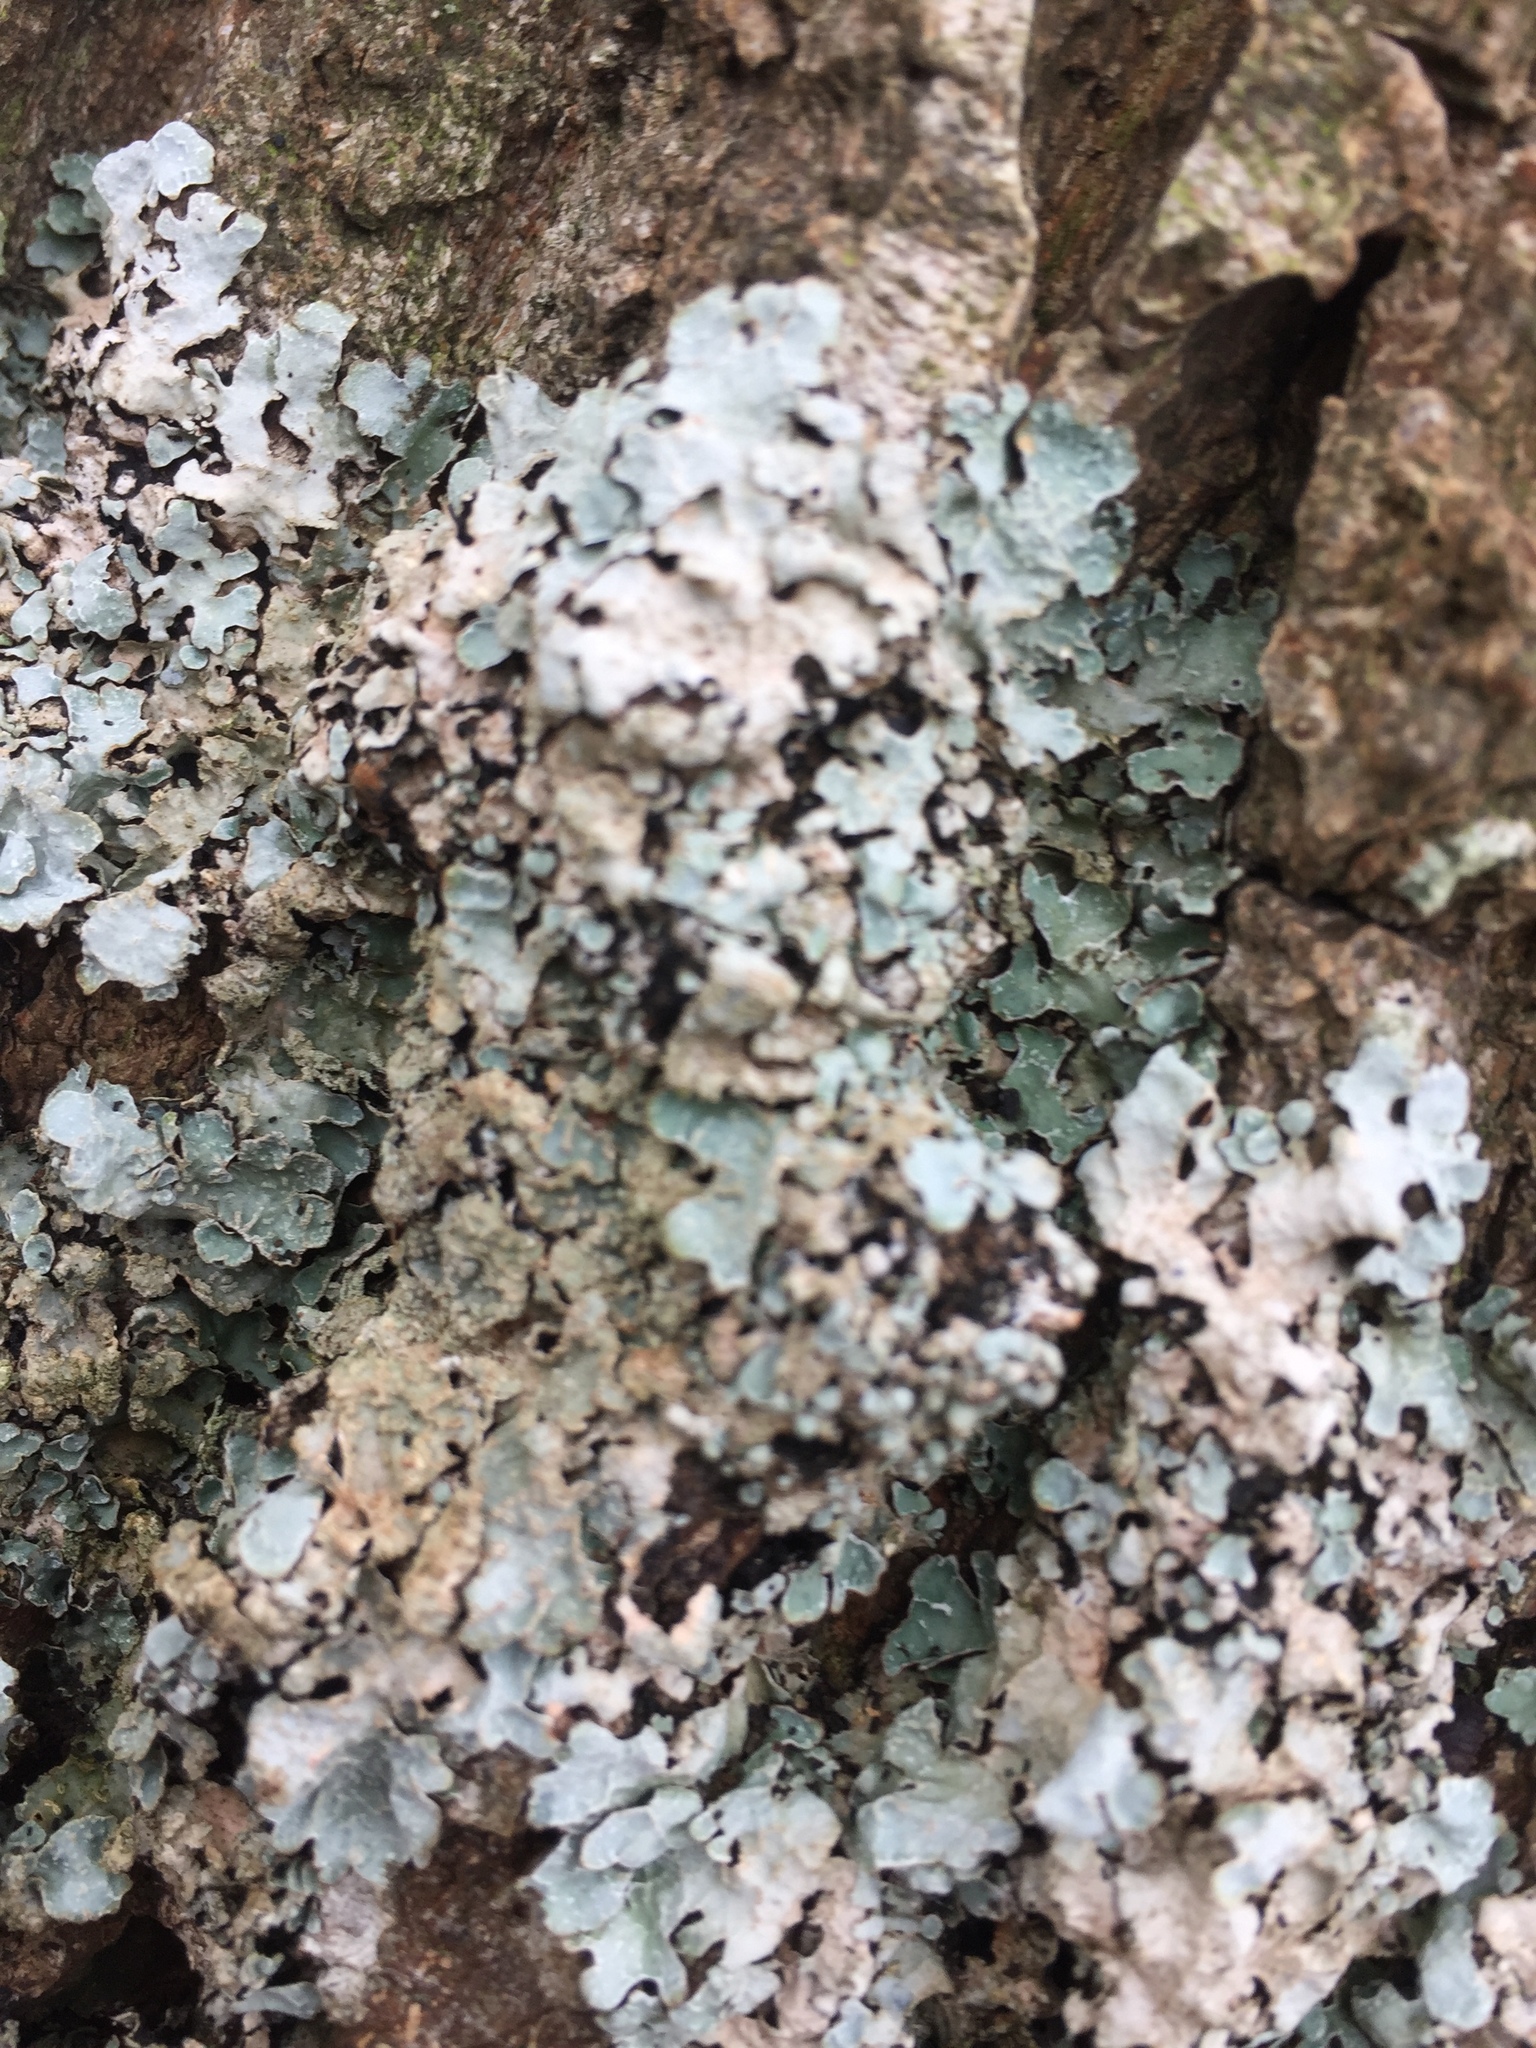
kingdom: Fungi
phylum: Ascomycota
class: Lecanoromycetes
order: Lecanorales
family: Parmeliaceae
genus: Parmelia
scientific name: Parmelia sulcata
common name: Netted shield lichen
